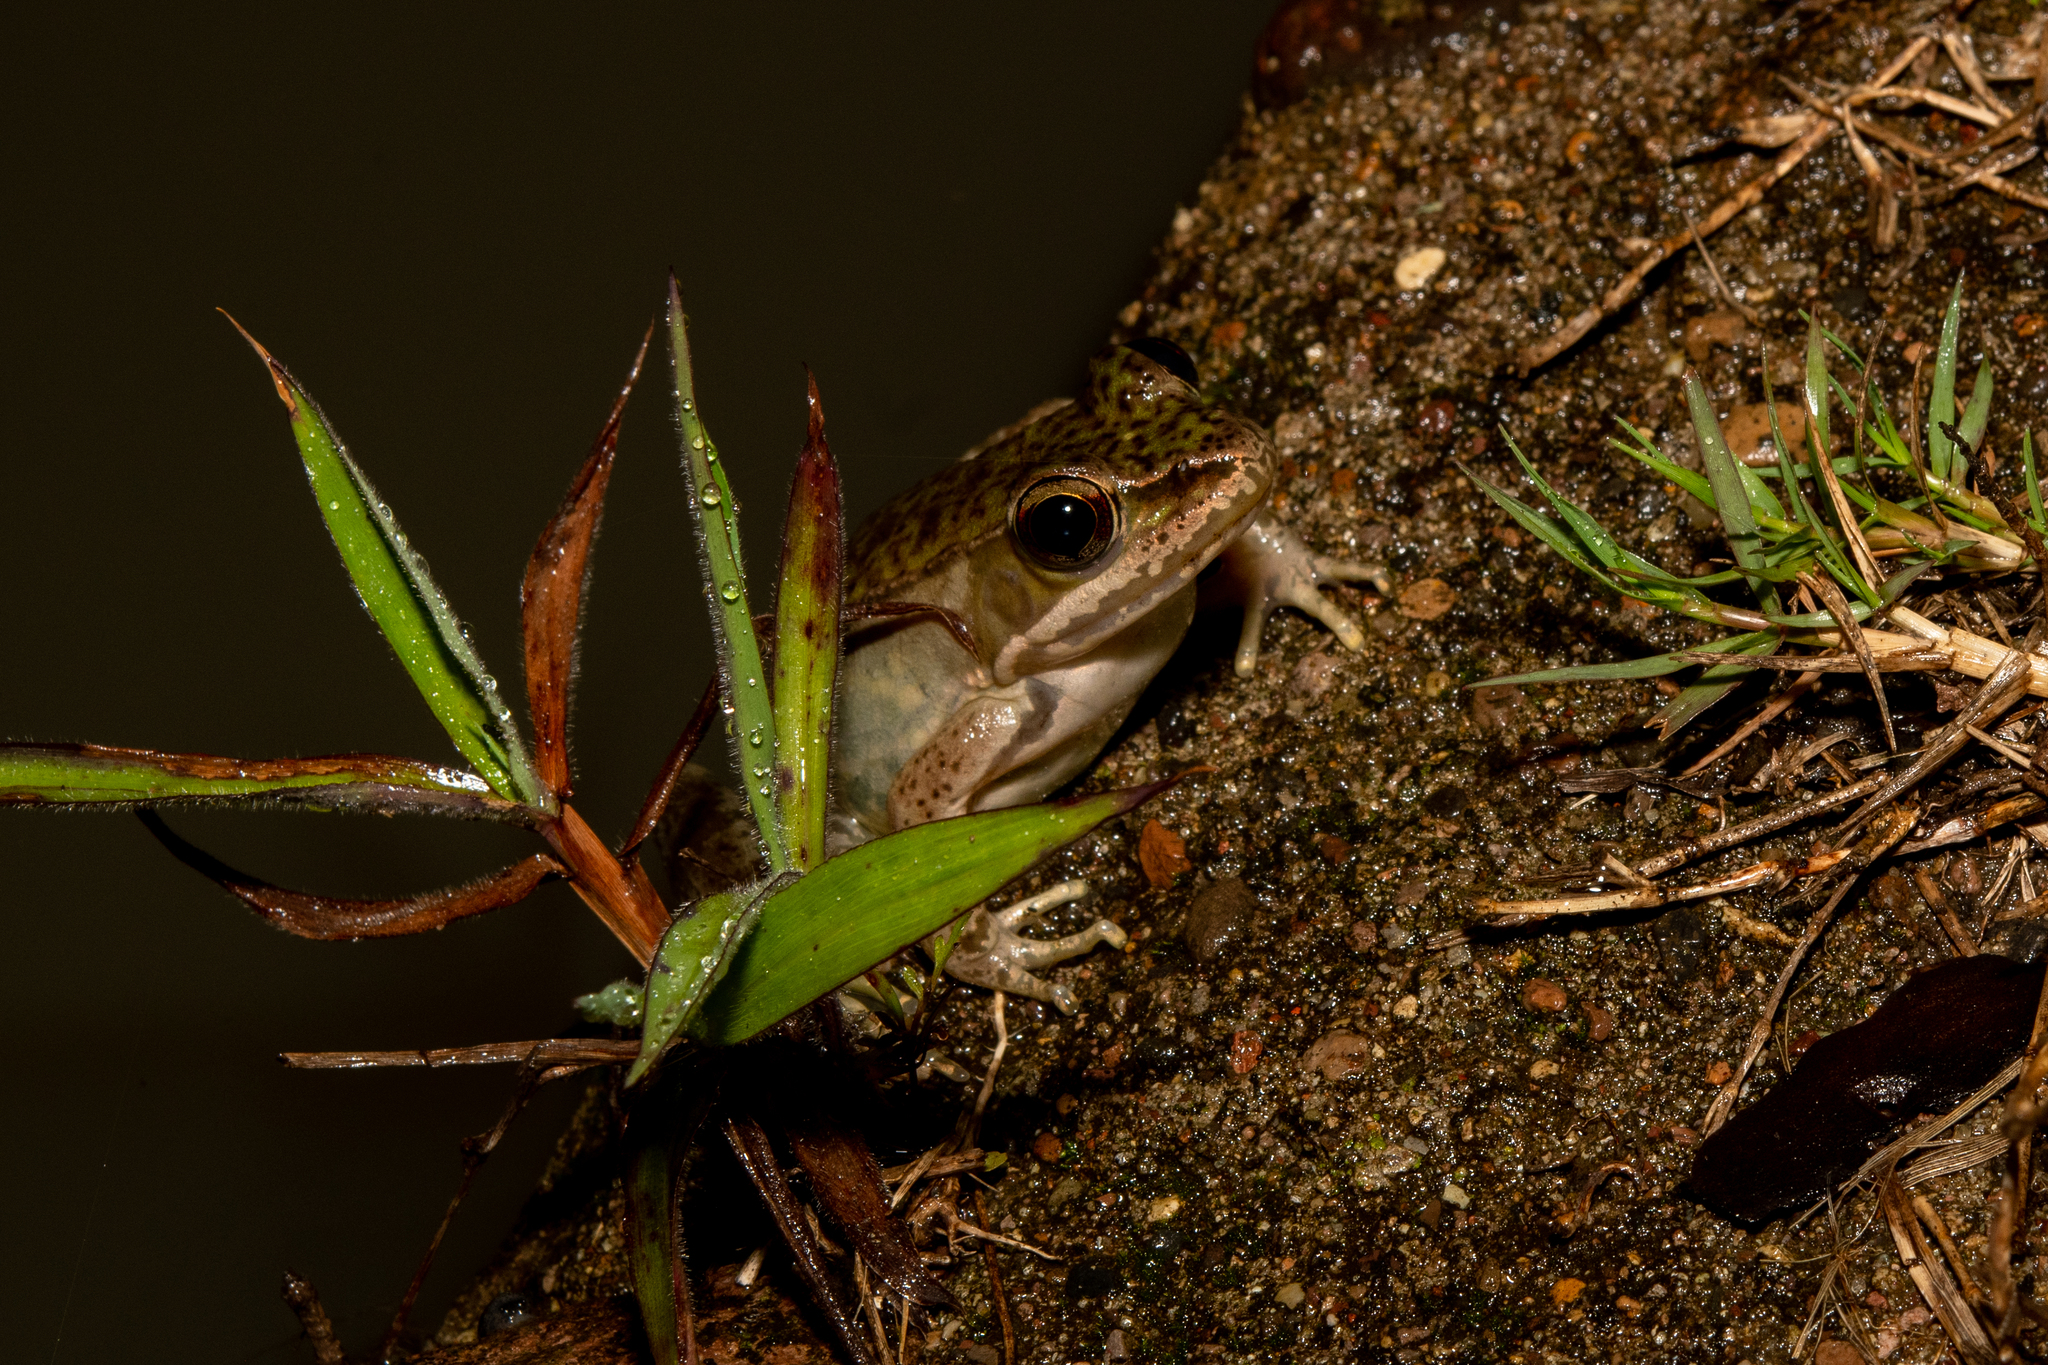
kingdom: Animalia
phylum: Chordata
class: Amphibia
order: Anura
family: Ranidae
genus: Lithobates
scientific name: Lithobates maculatus
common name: Highland frog
